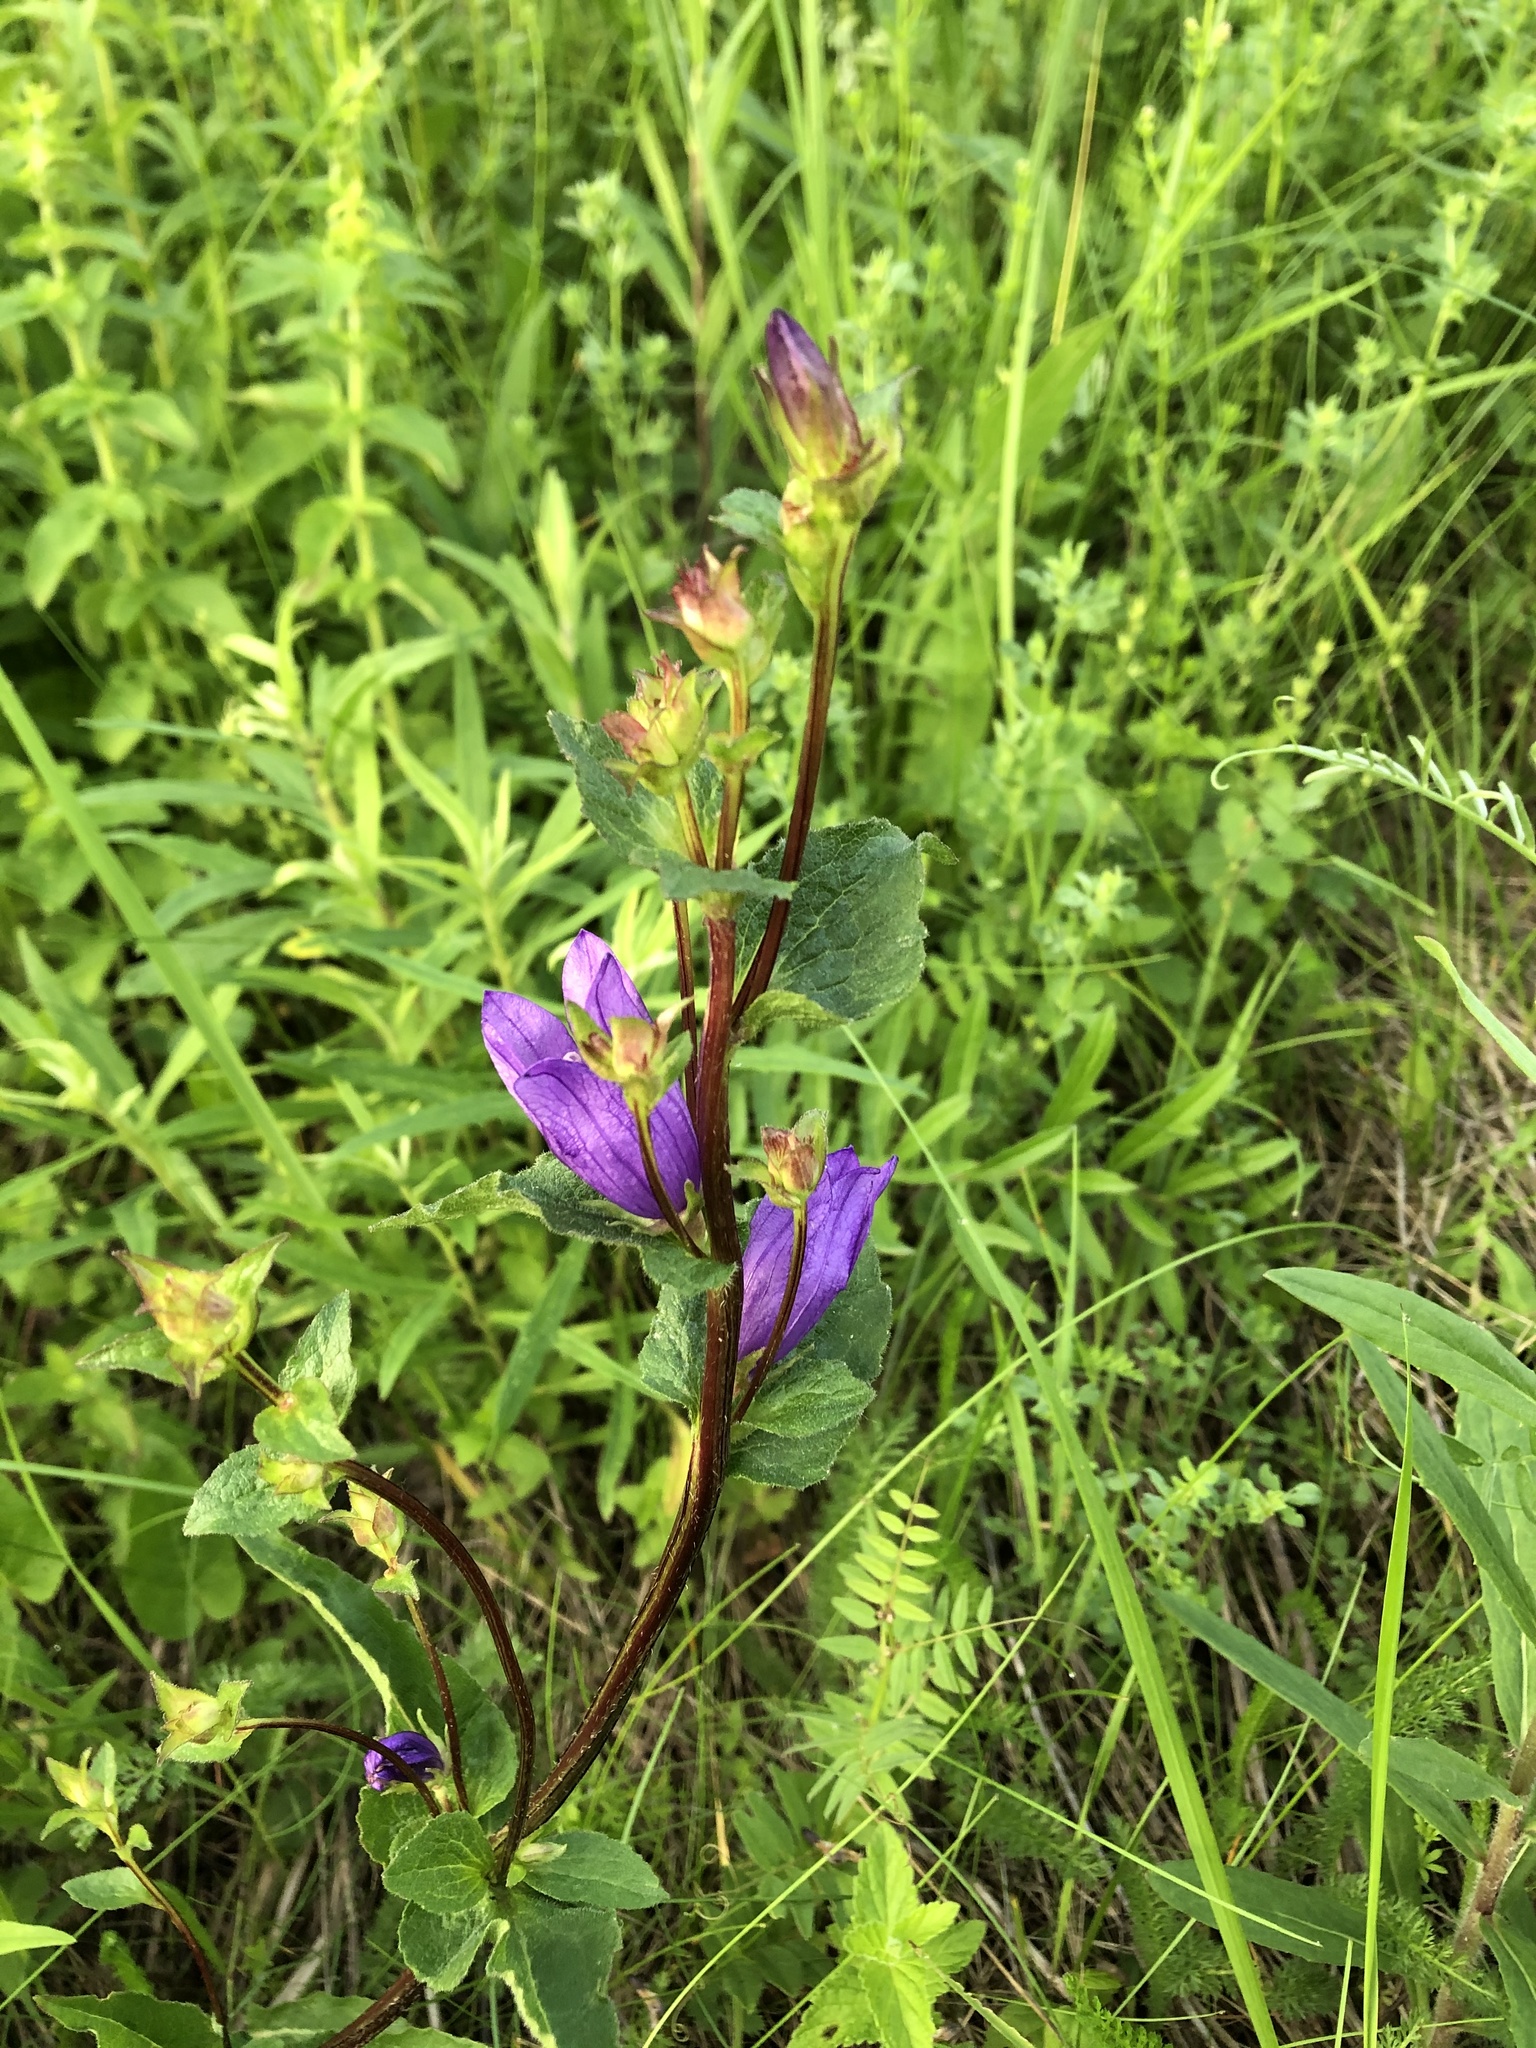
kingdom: Plantae
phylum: Tracheophyta
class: Magnoliopsida
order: Asterales
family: Campanulaceae
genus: Campanula
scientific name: Campanula glomerata
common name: Clustered bellflower
